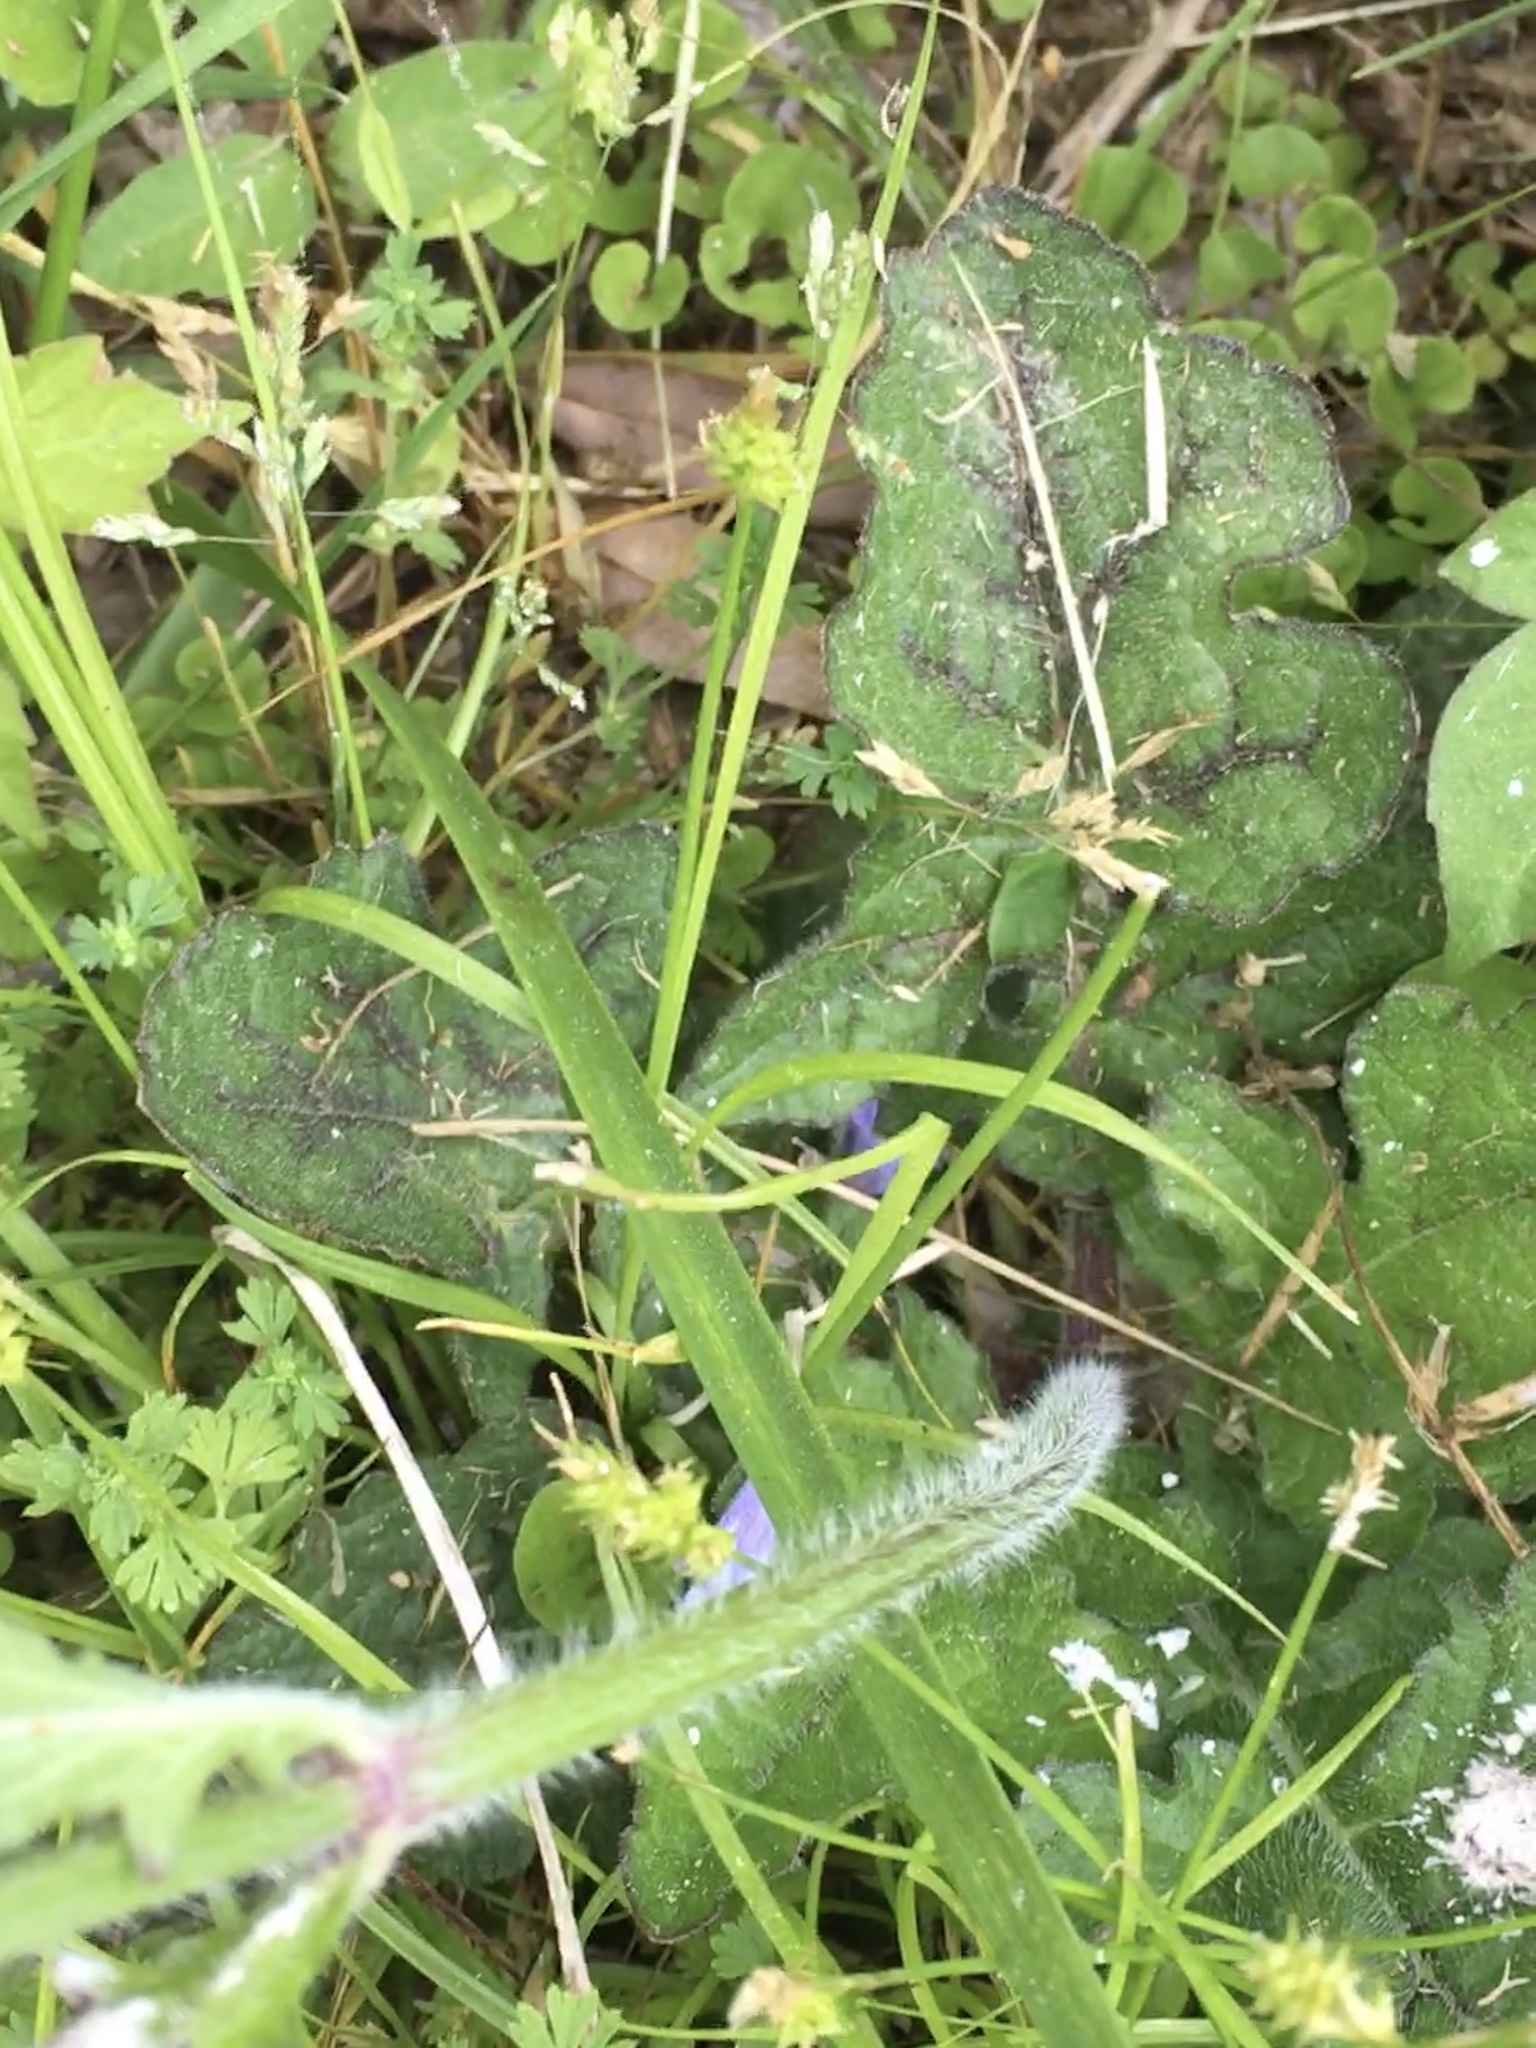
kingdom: Plantae
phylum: Tracheophyta
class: Magnoliopsida
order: Lamiales
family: Lamiaceae
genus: Salvia
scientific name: Salvia lyrata
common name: Cancerweed
